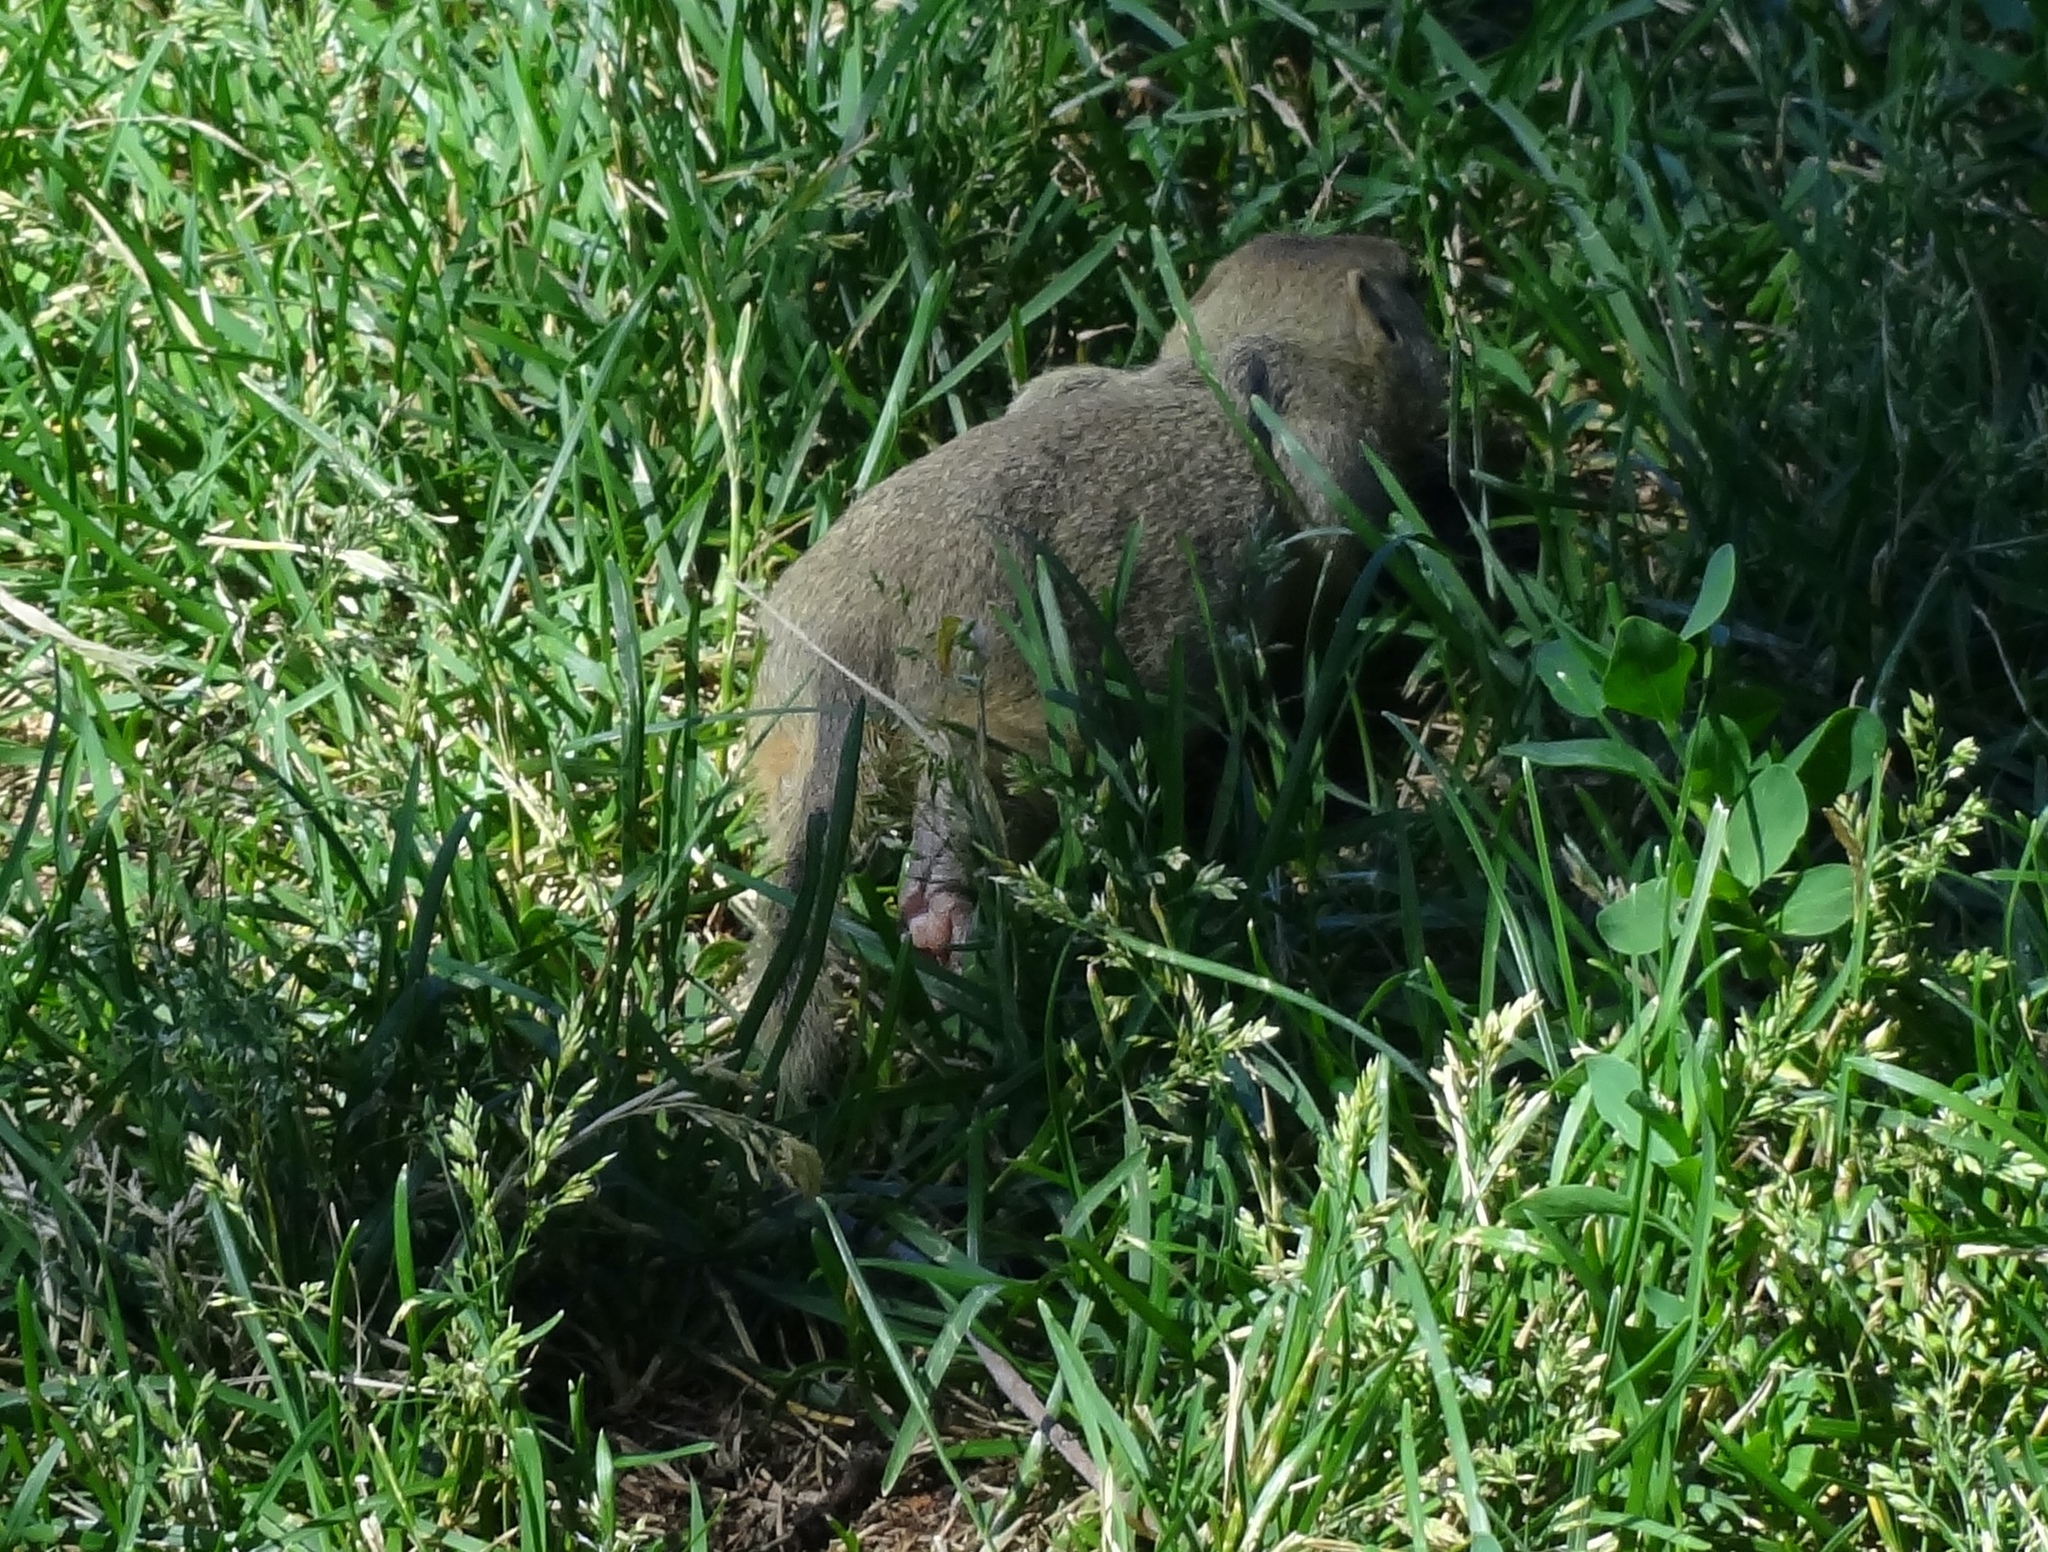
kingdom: Animalia
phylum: Chordata
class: Mammalia
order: Rodentia
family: Sciuridae
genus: Urocitellus
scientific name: Urocitellus richardsonii
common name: Richardson's ground squirrel
